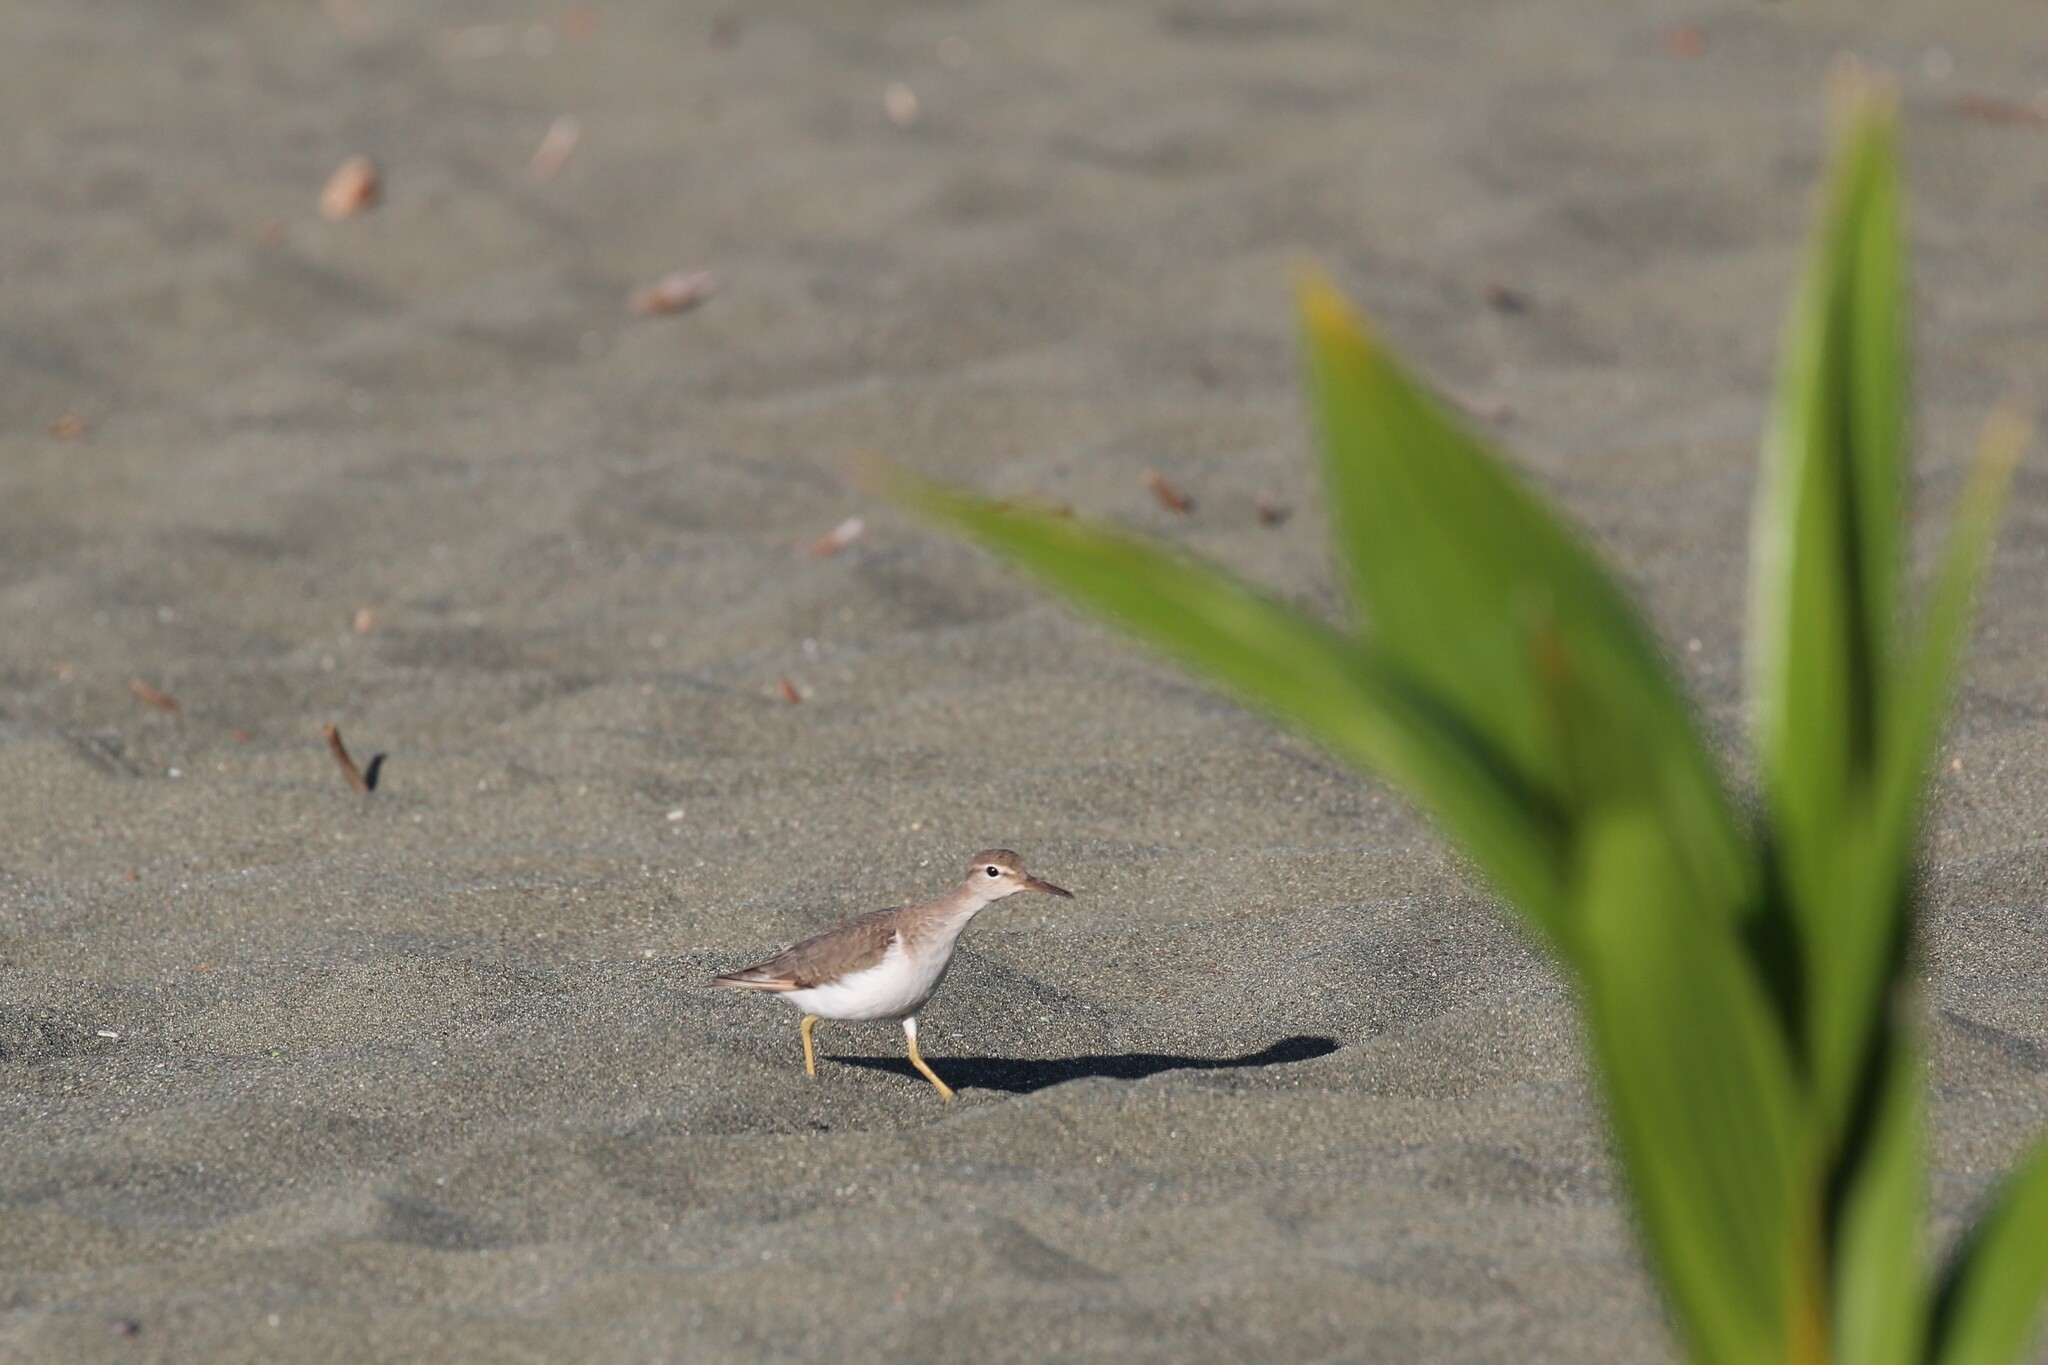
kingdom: Animalia
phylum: Chordata
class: Aves
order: Charadriiformes
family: Scolopacidae
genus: Actitis
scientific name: Actitis macularius
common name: Spotted sandpiper
